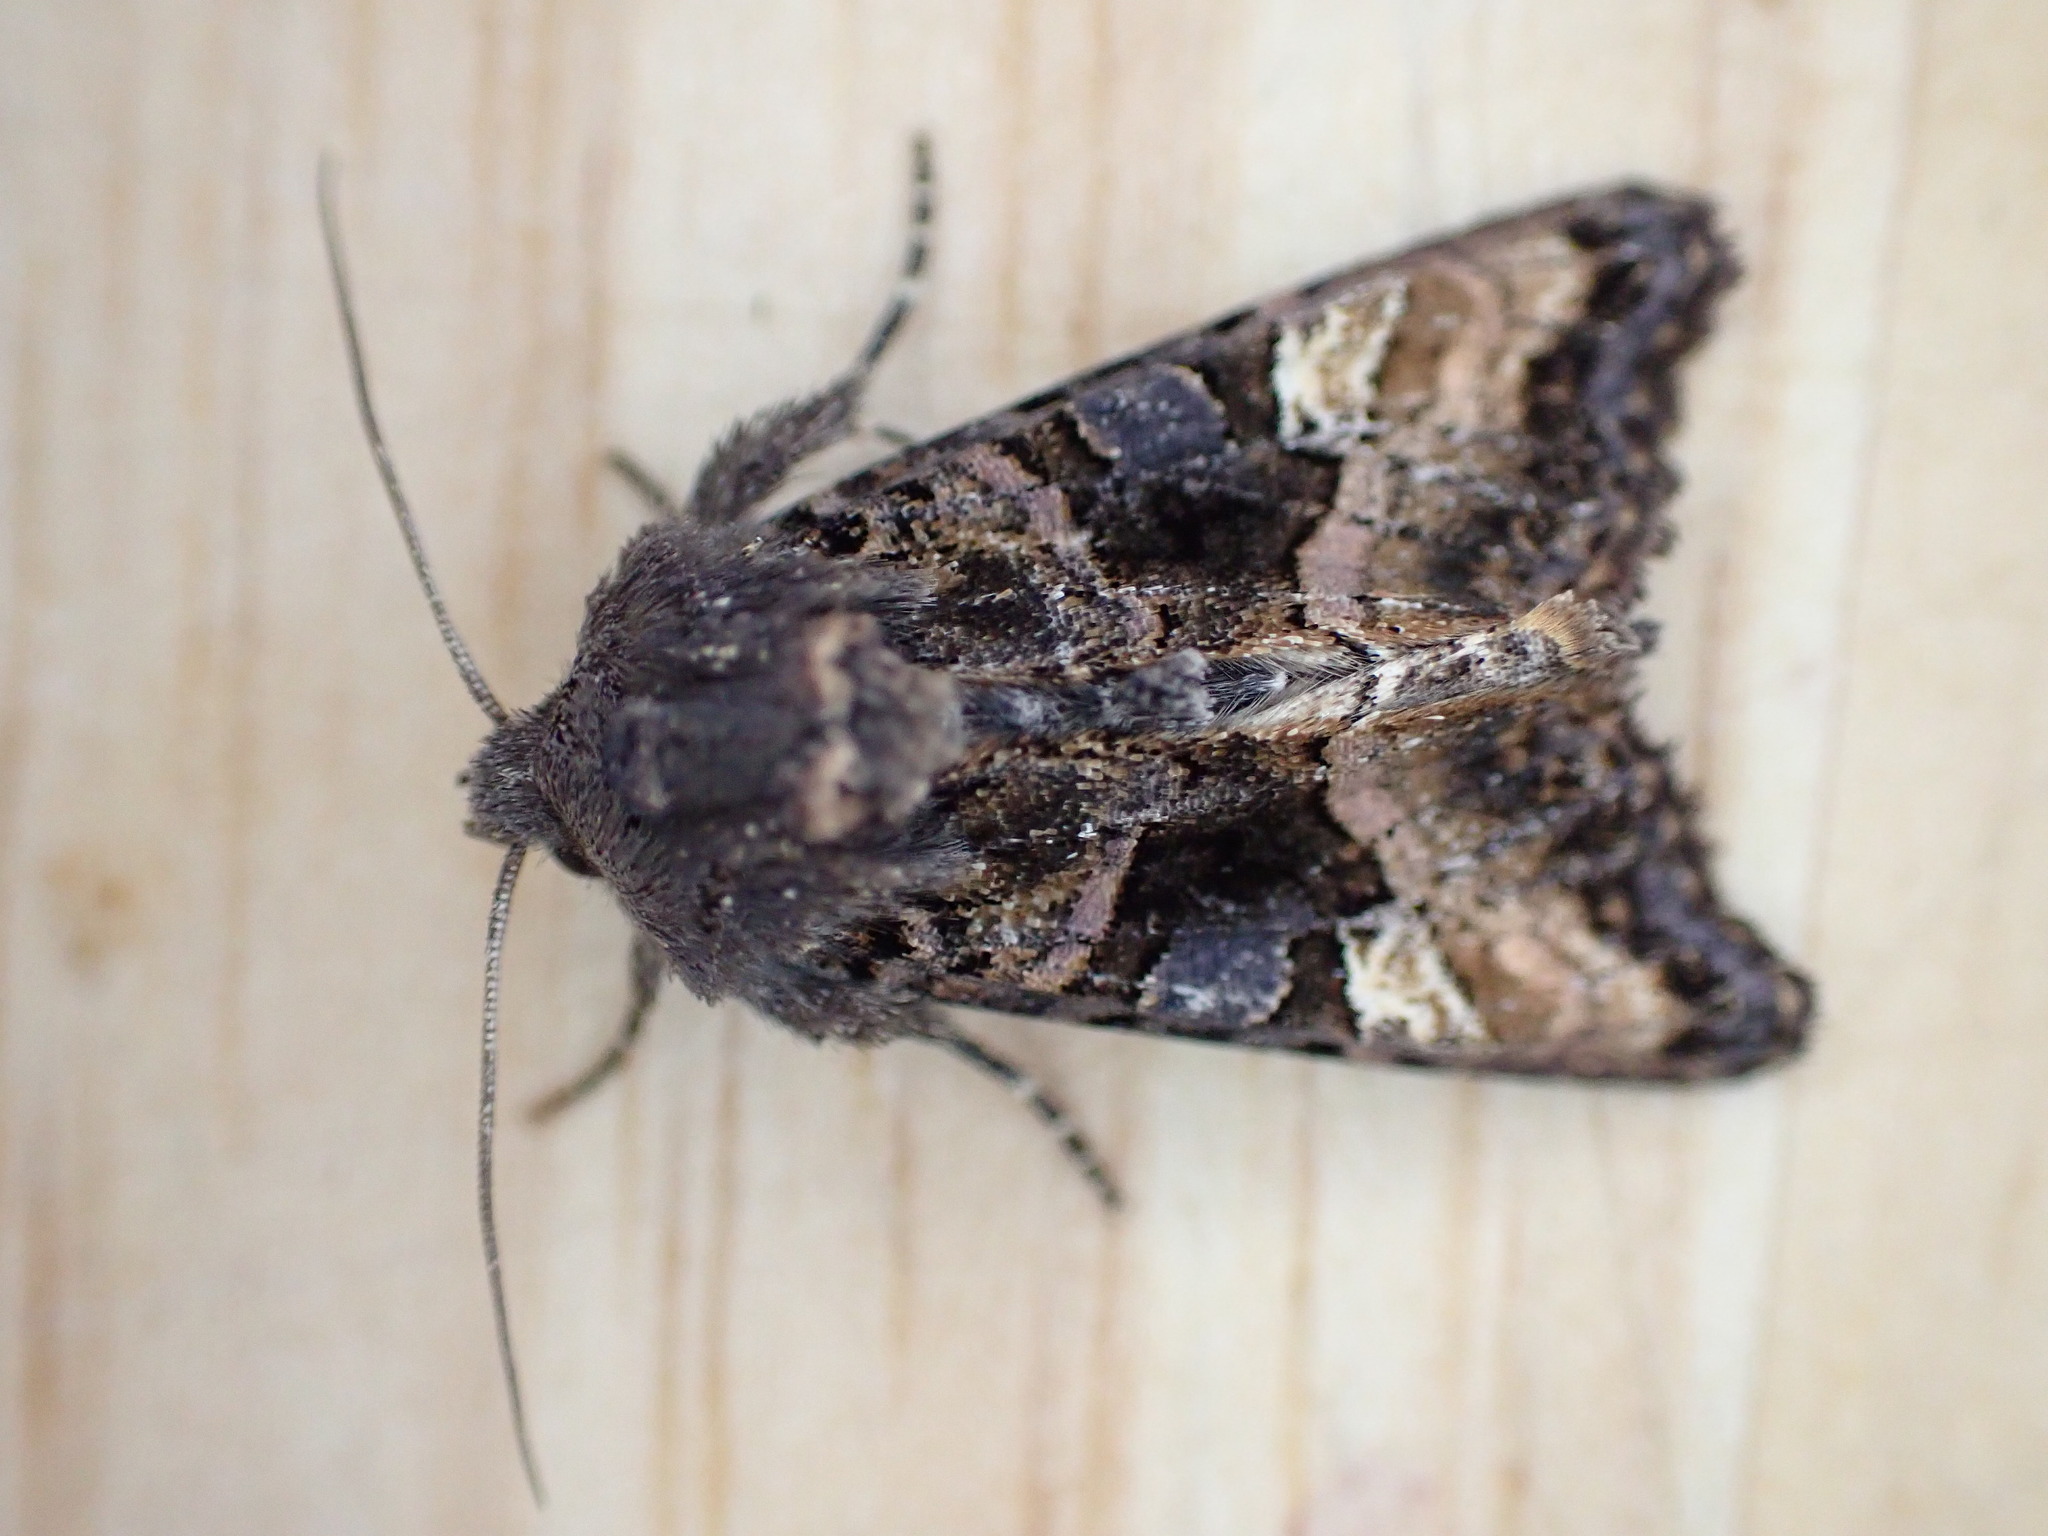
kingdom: Animalia
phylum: Arthropoda
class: Insecta
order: Lepidoptera
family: Noctuidae
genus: Euplexia
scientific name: Euplexia lucipara
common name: Small angle shades
